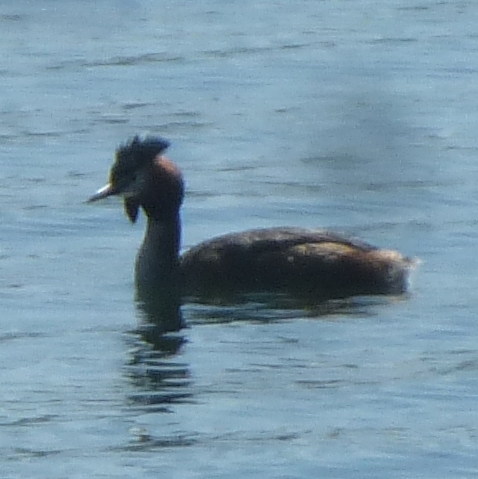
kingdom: Animalia
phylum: Chordata
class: Aves
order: Podicipediformes
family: Podicipedidae
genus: Podiceps
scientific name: Podiceps cristatus
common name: Great crested grebe
